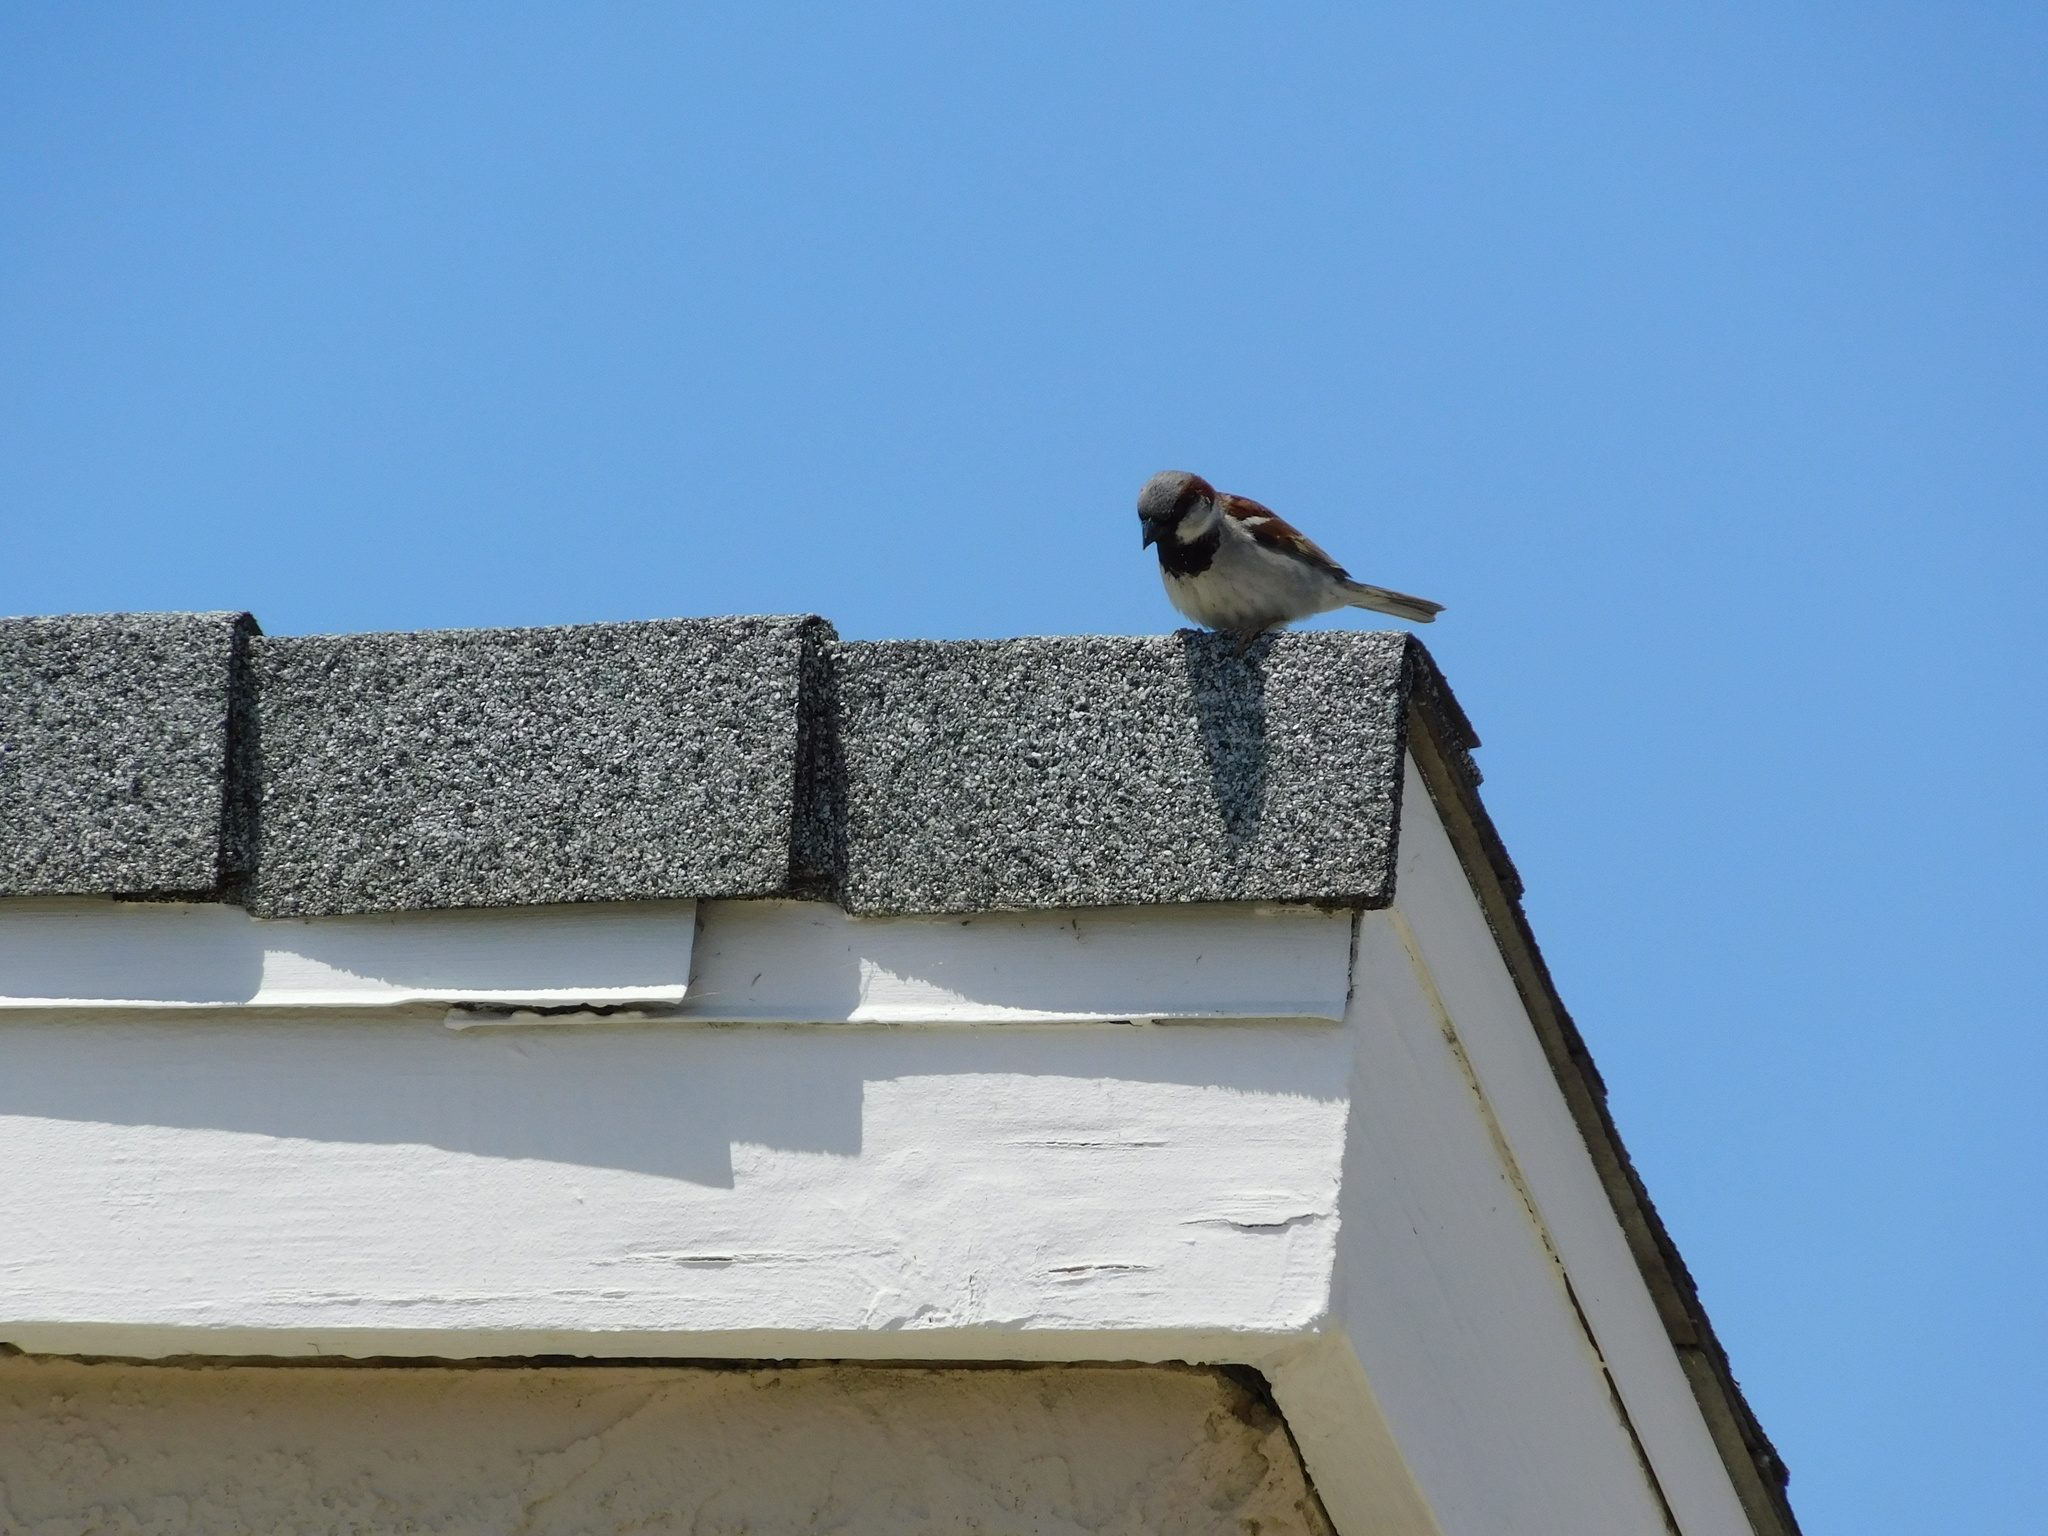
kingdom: Animalia
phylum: Chordata
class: Aves
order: Passeriformes
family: Passeridae
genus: Passer
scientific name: Passer domesticus
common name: House sparrow
